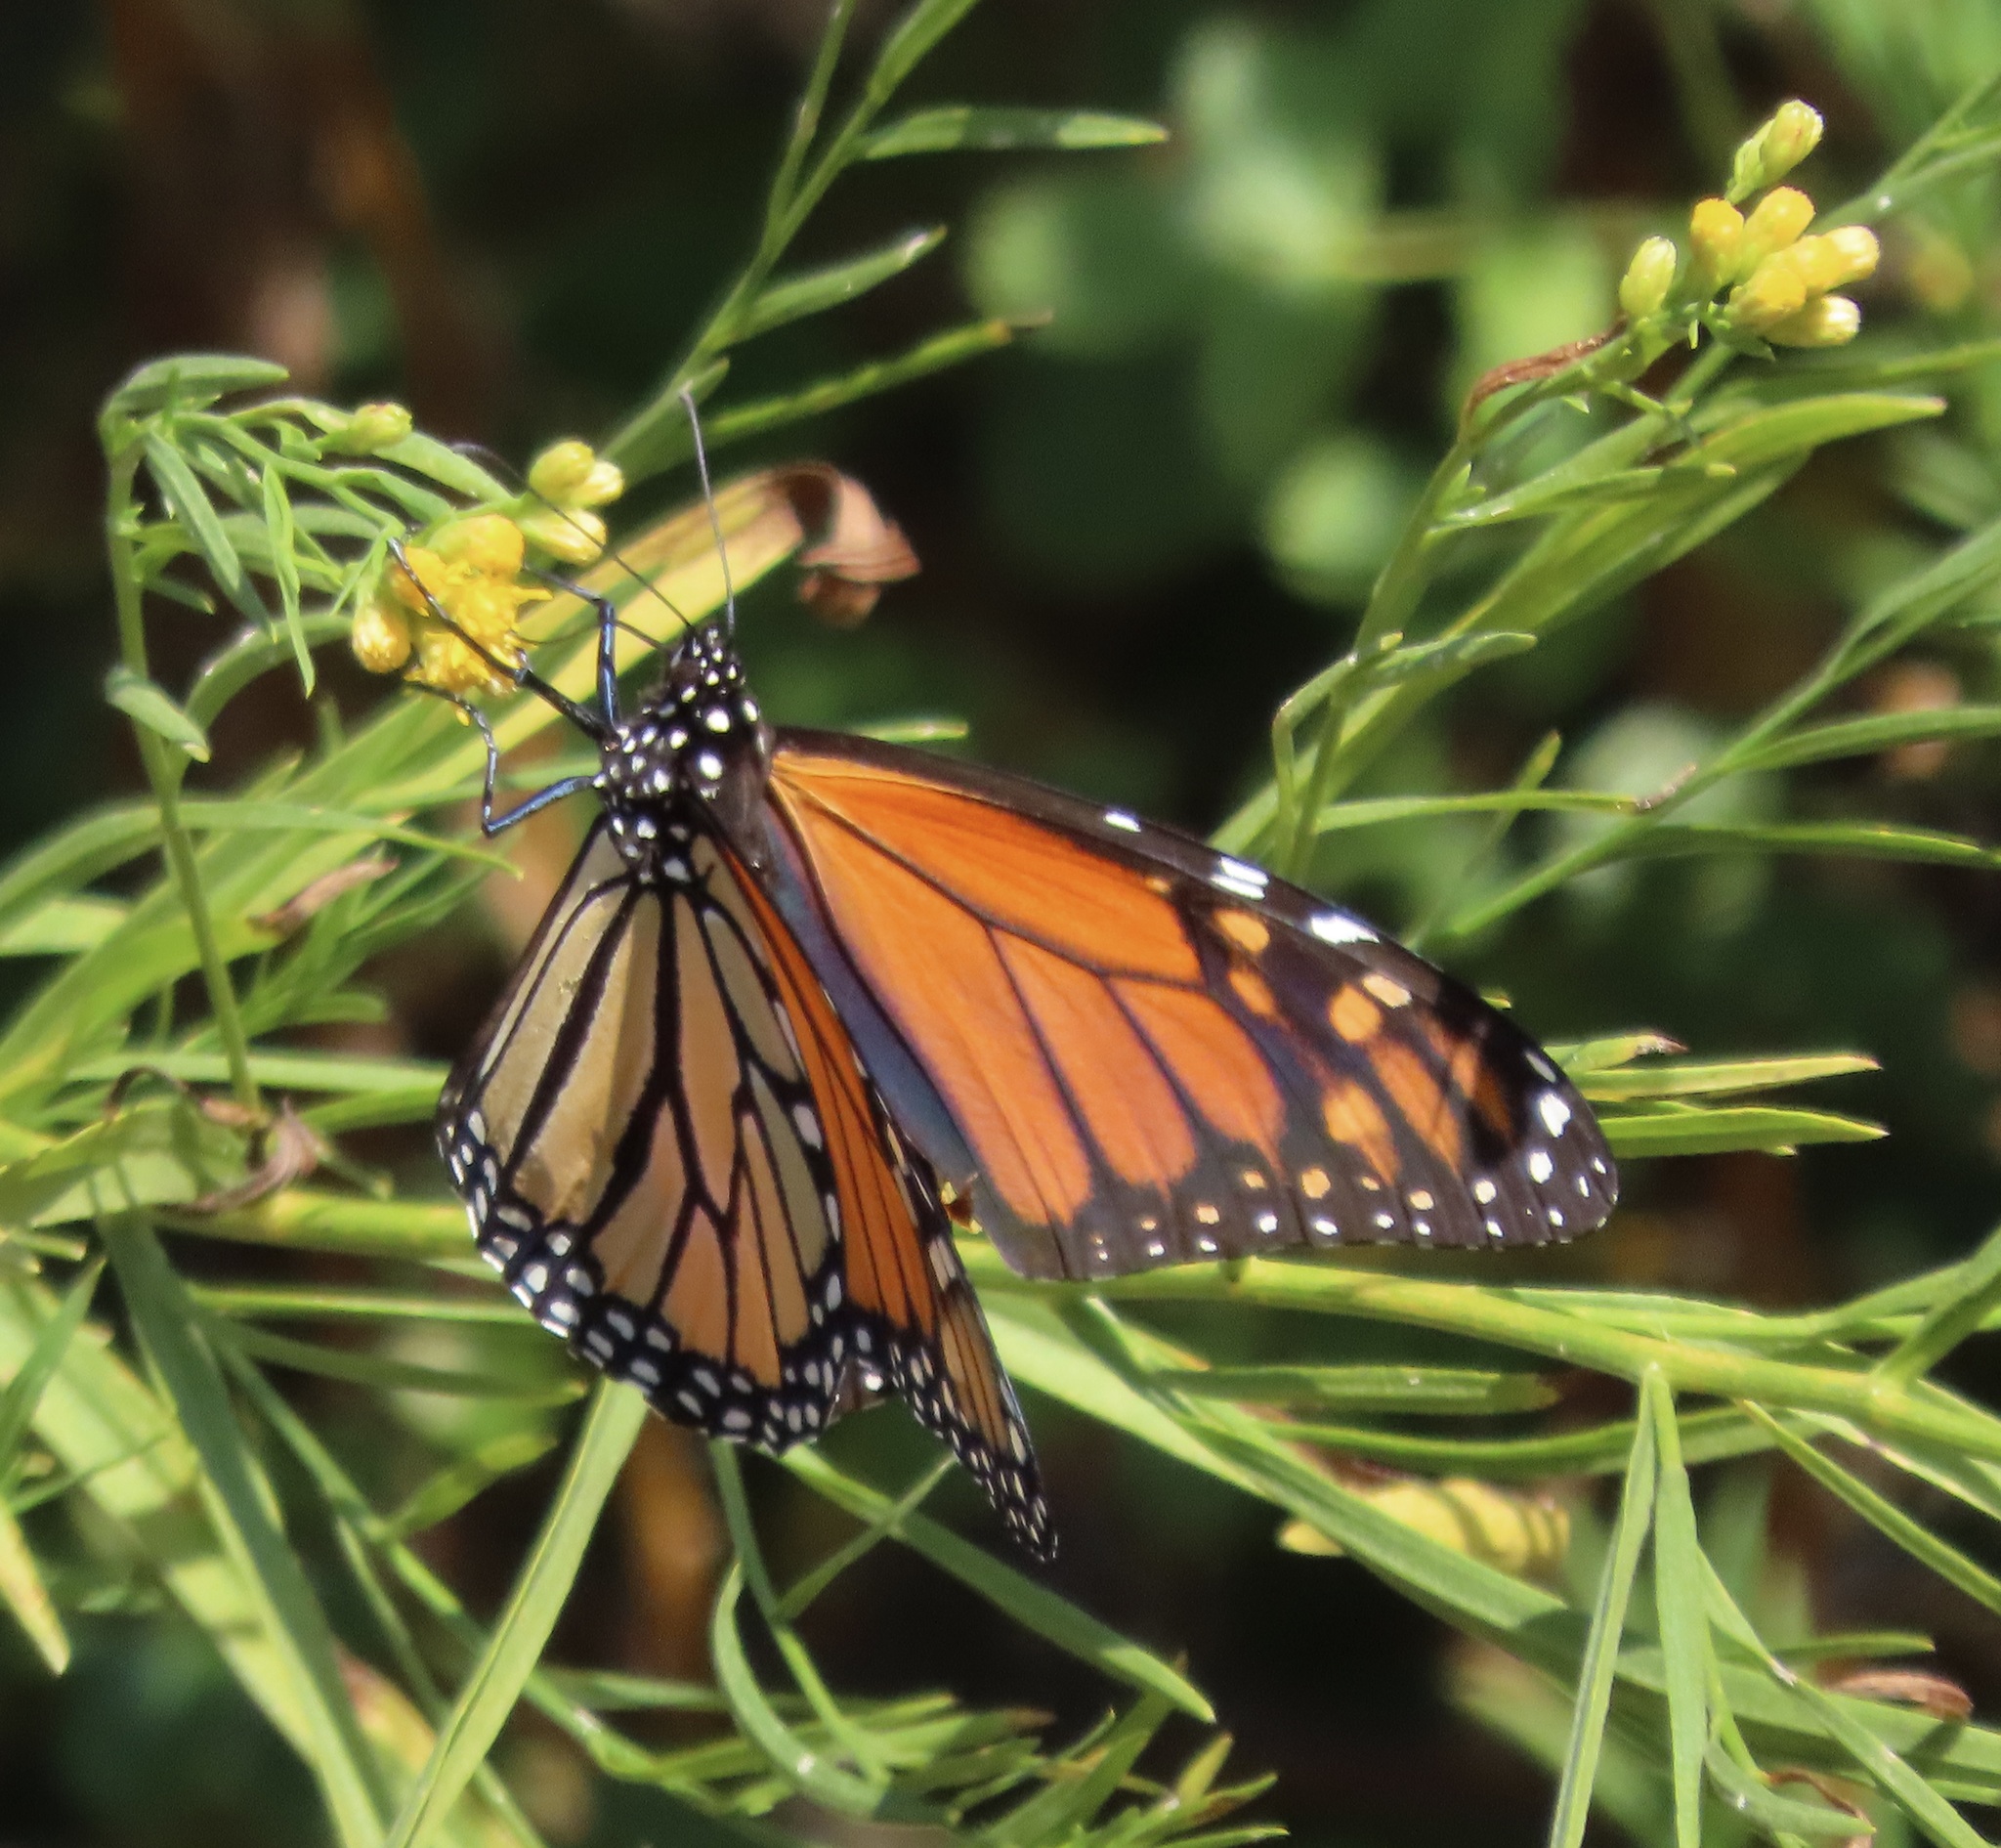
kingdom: Animalia
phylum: Arthropoda
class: Insecta
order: Lepidoptera
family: Nymphalidae
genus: Danaus
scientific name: Danaus plexippus
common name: Monarch
